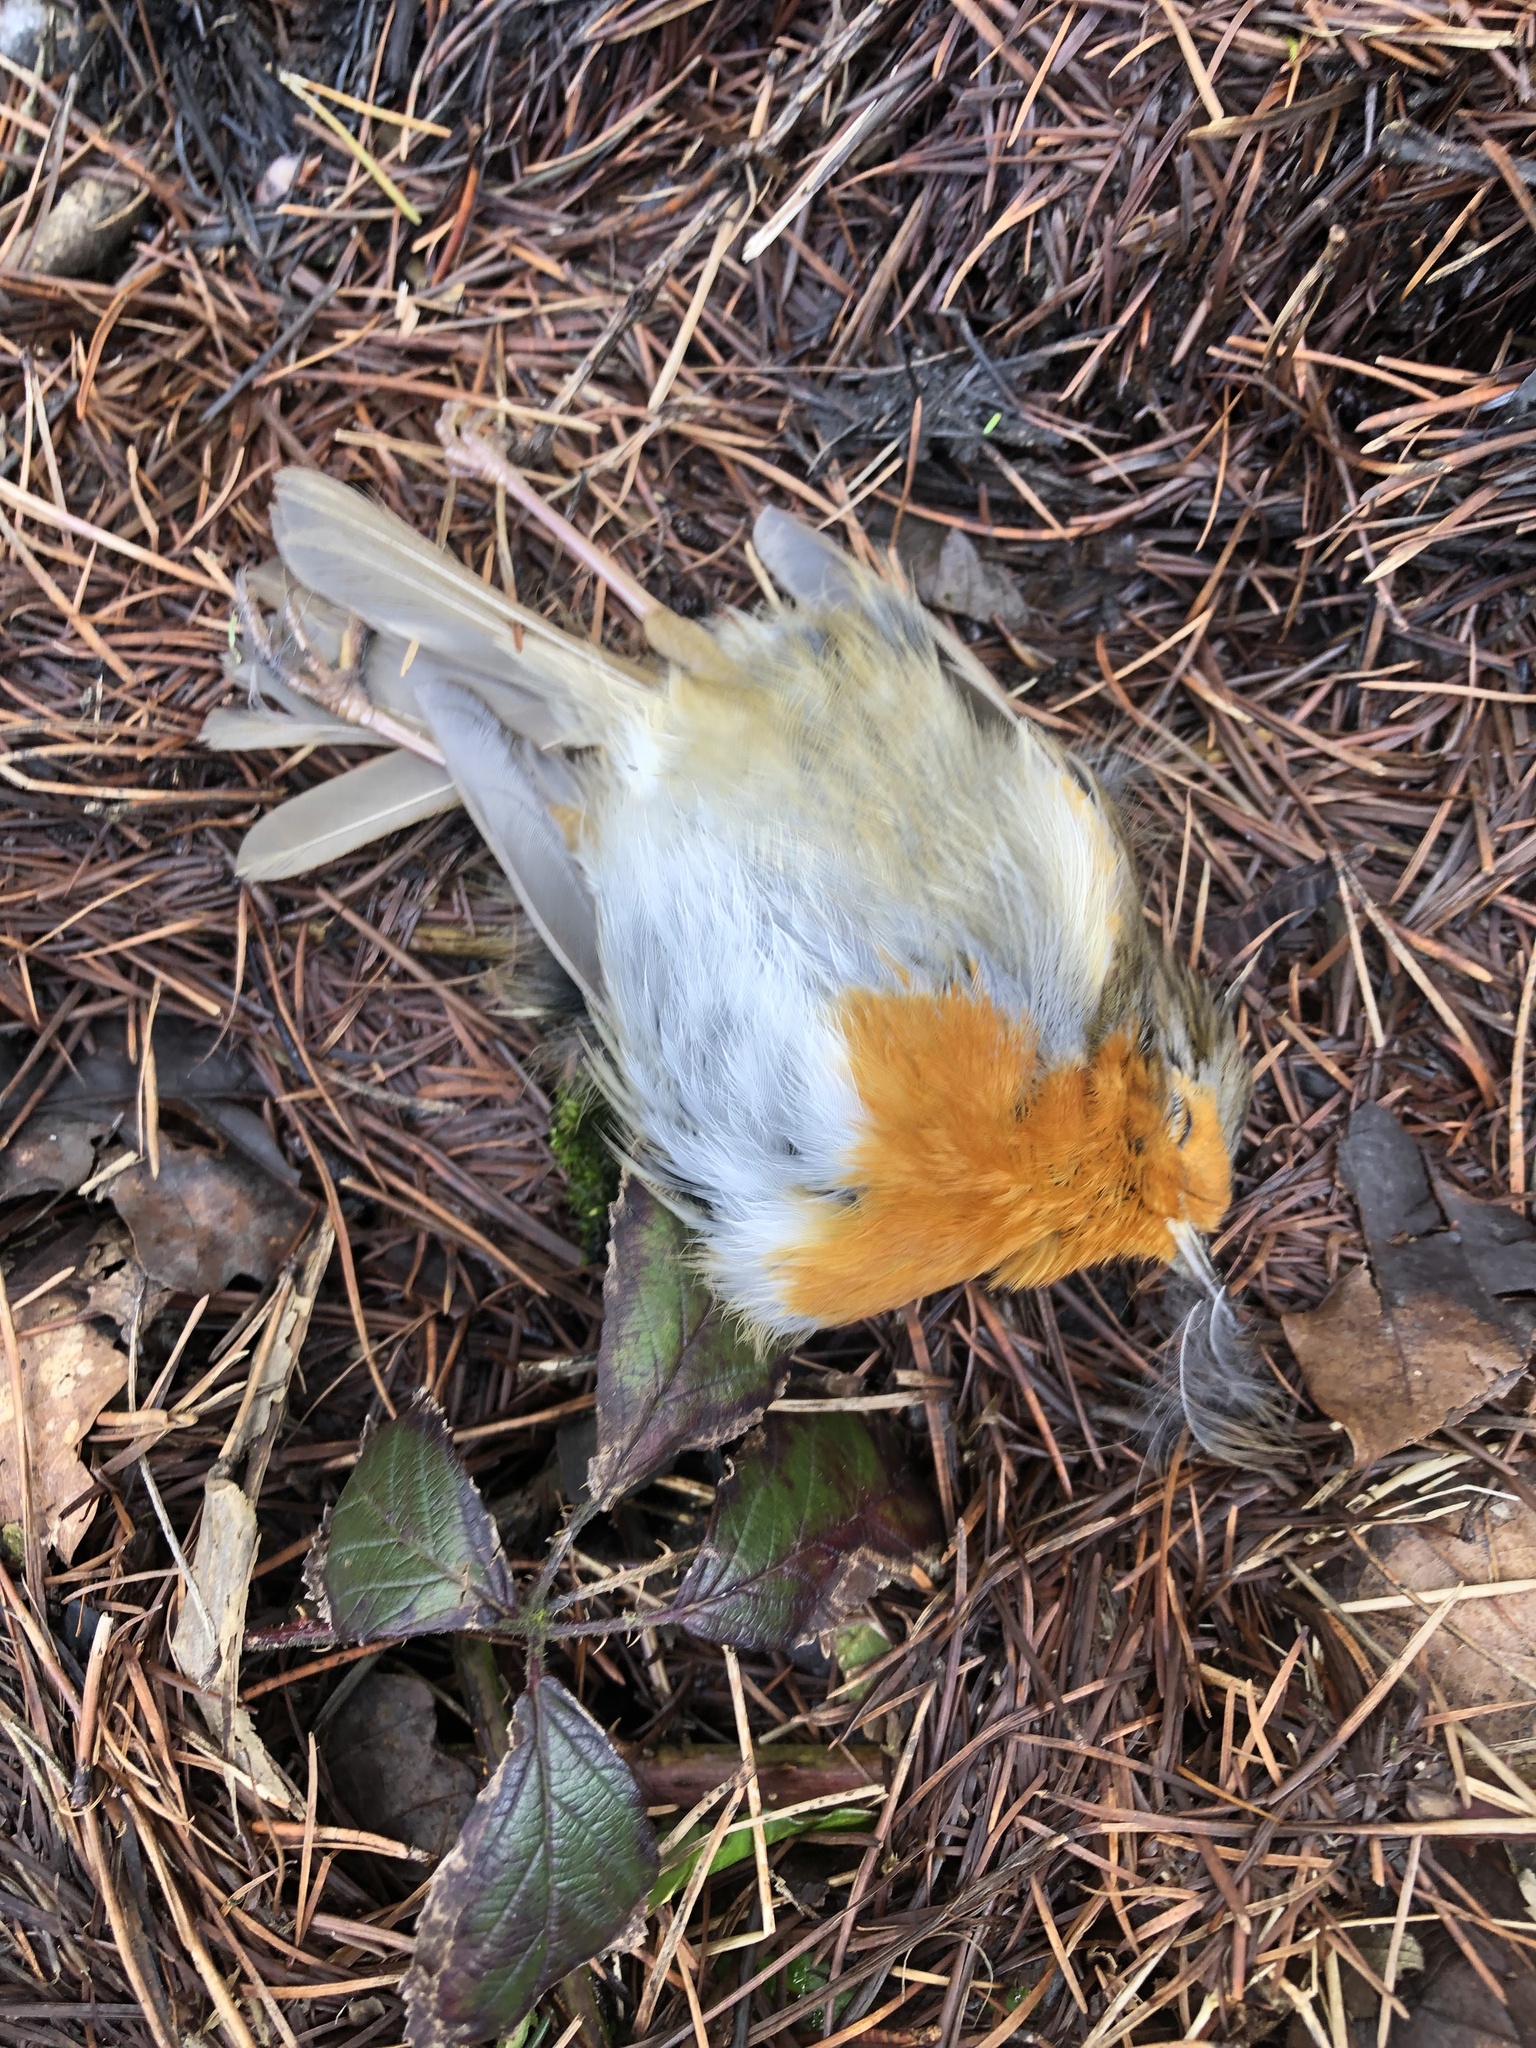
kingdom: Animalia
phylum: Chordata
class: Aves
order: Passeriformes
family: Muscicapidae
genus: Erithacus
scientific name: Erithacus rubecula
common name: European robin
